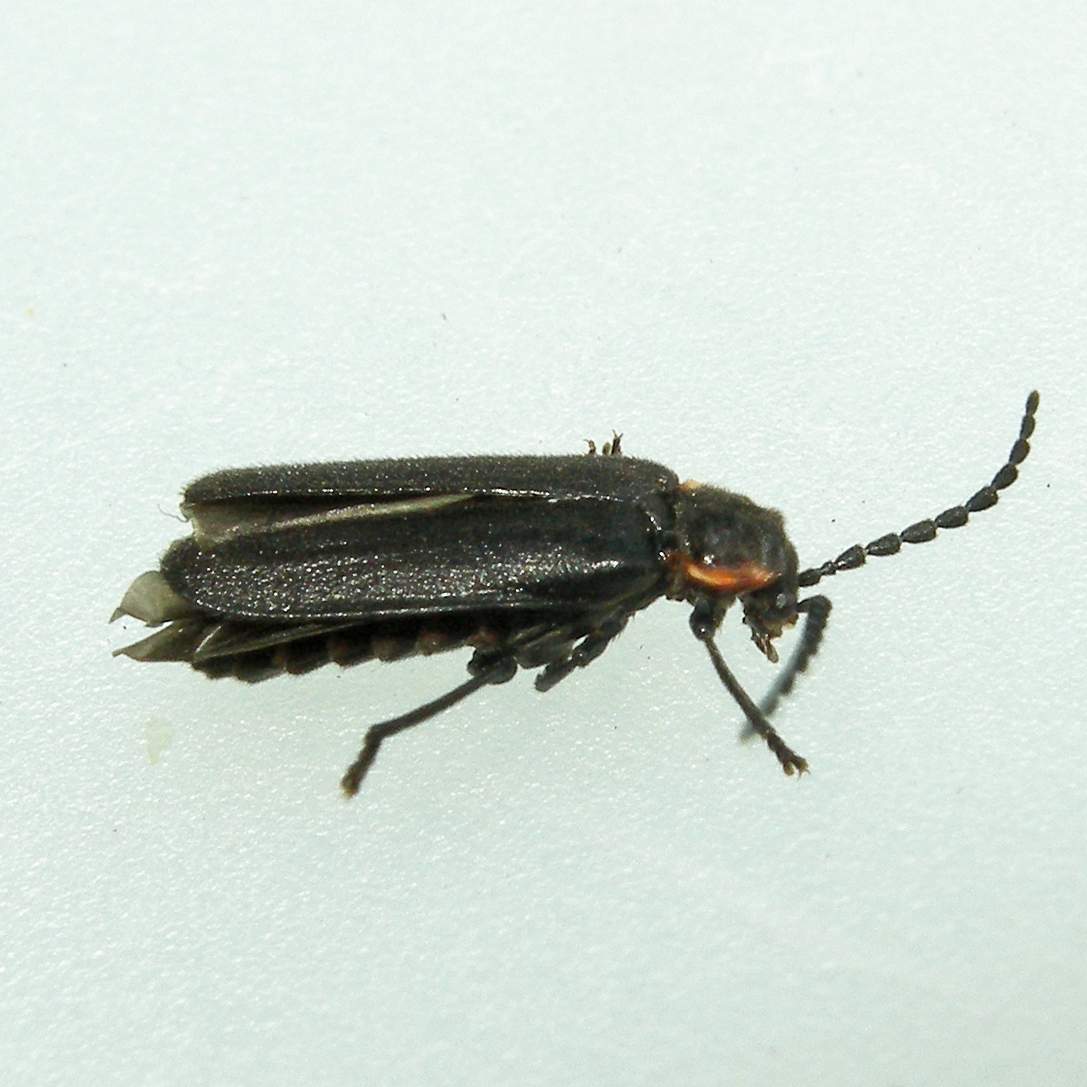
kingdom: Animalia
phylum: Arthropoda
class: Insecta
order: Coleoptera
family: Cantharidae
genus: Polemius
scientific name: Polemius laticornis
